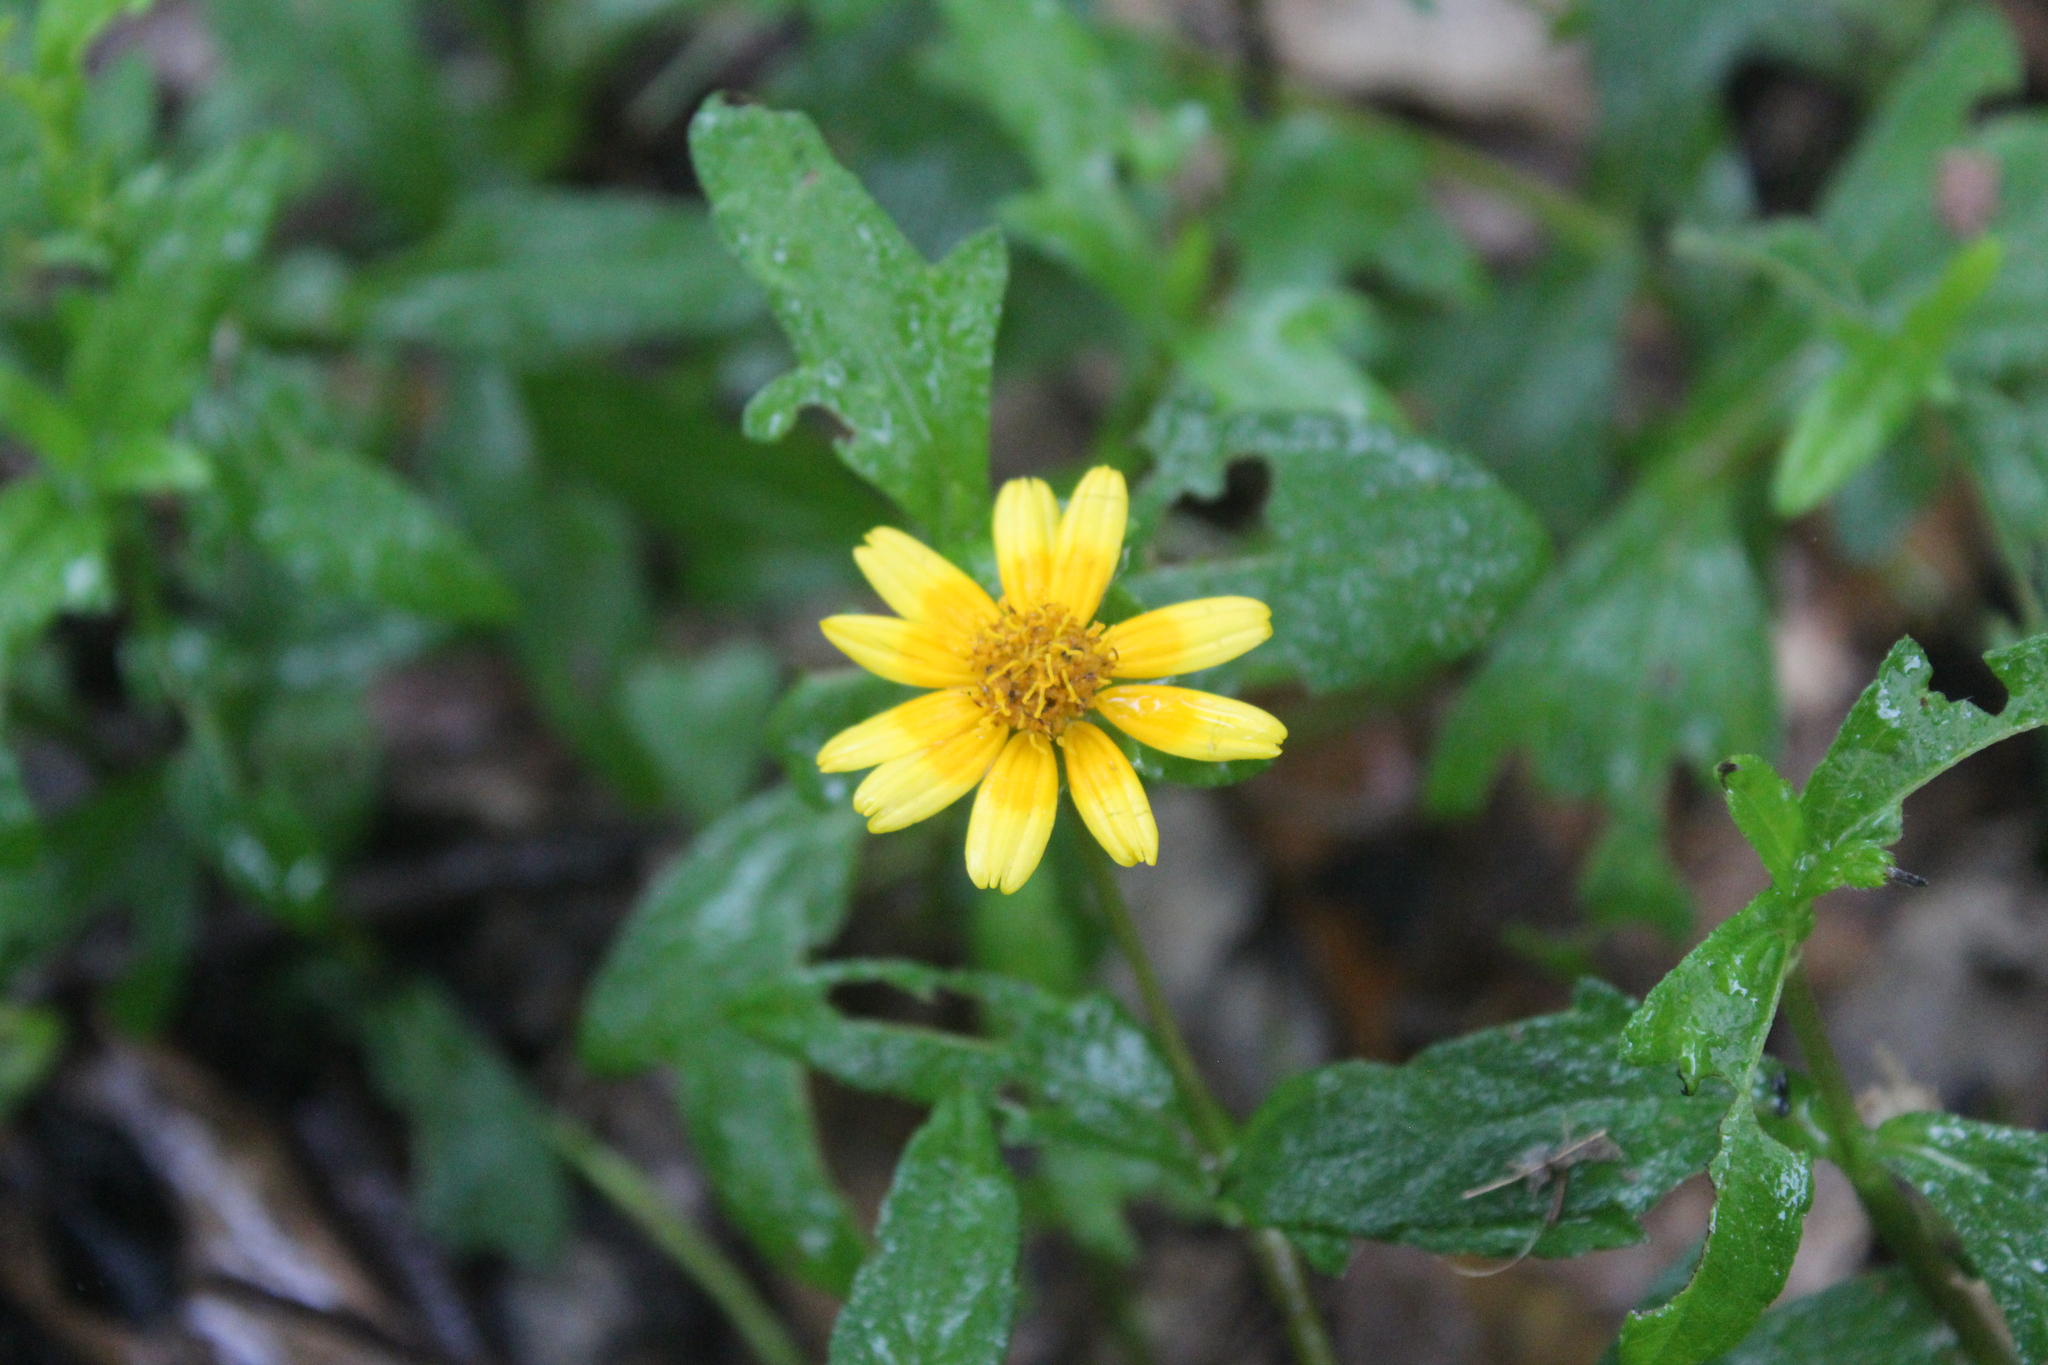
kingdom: Plantae
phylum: Tracheophyta
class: Magnoliopsida
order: Asterales
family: Asteraceae
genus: Sphagneticola
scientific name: Sphagneticola trilobata
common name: Bay biscayne creeping-oxeye
